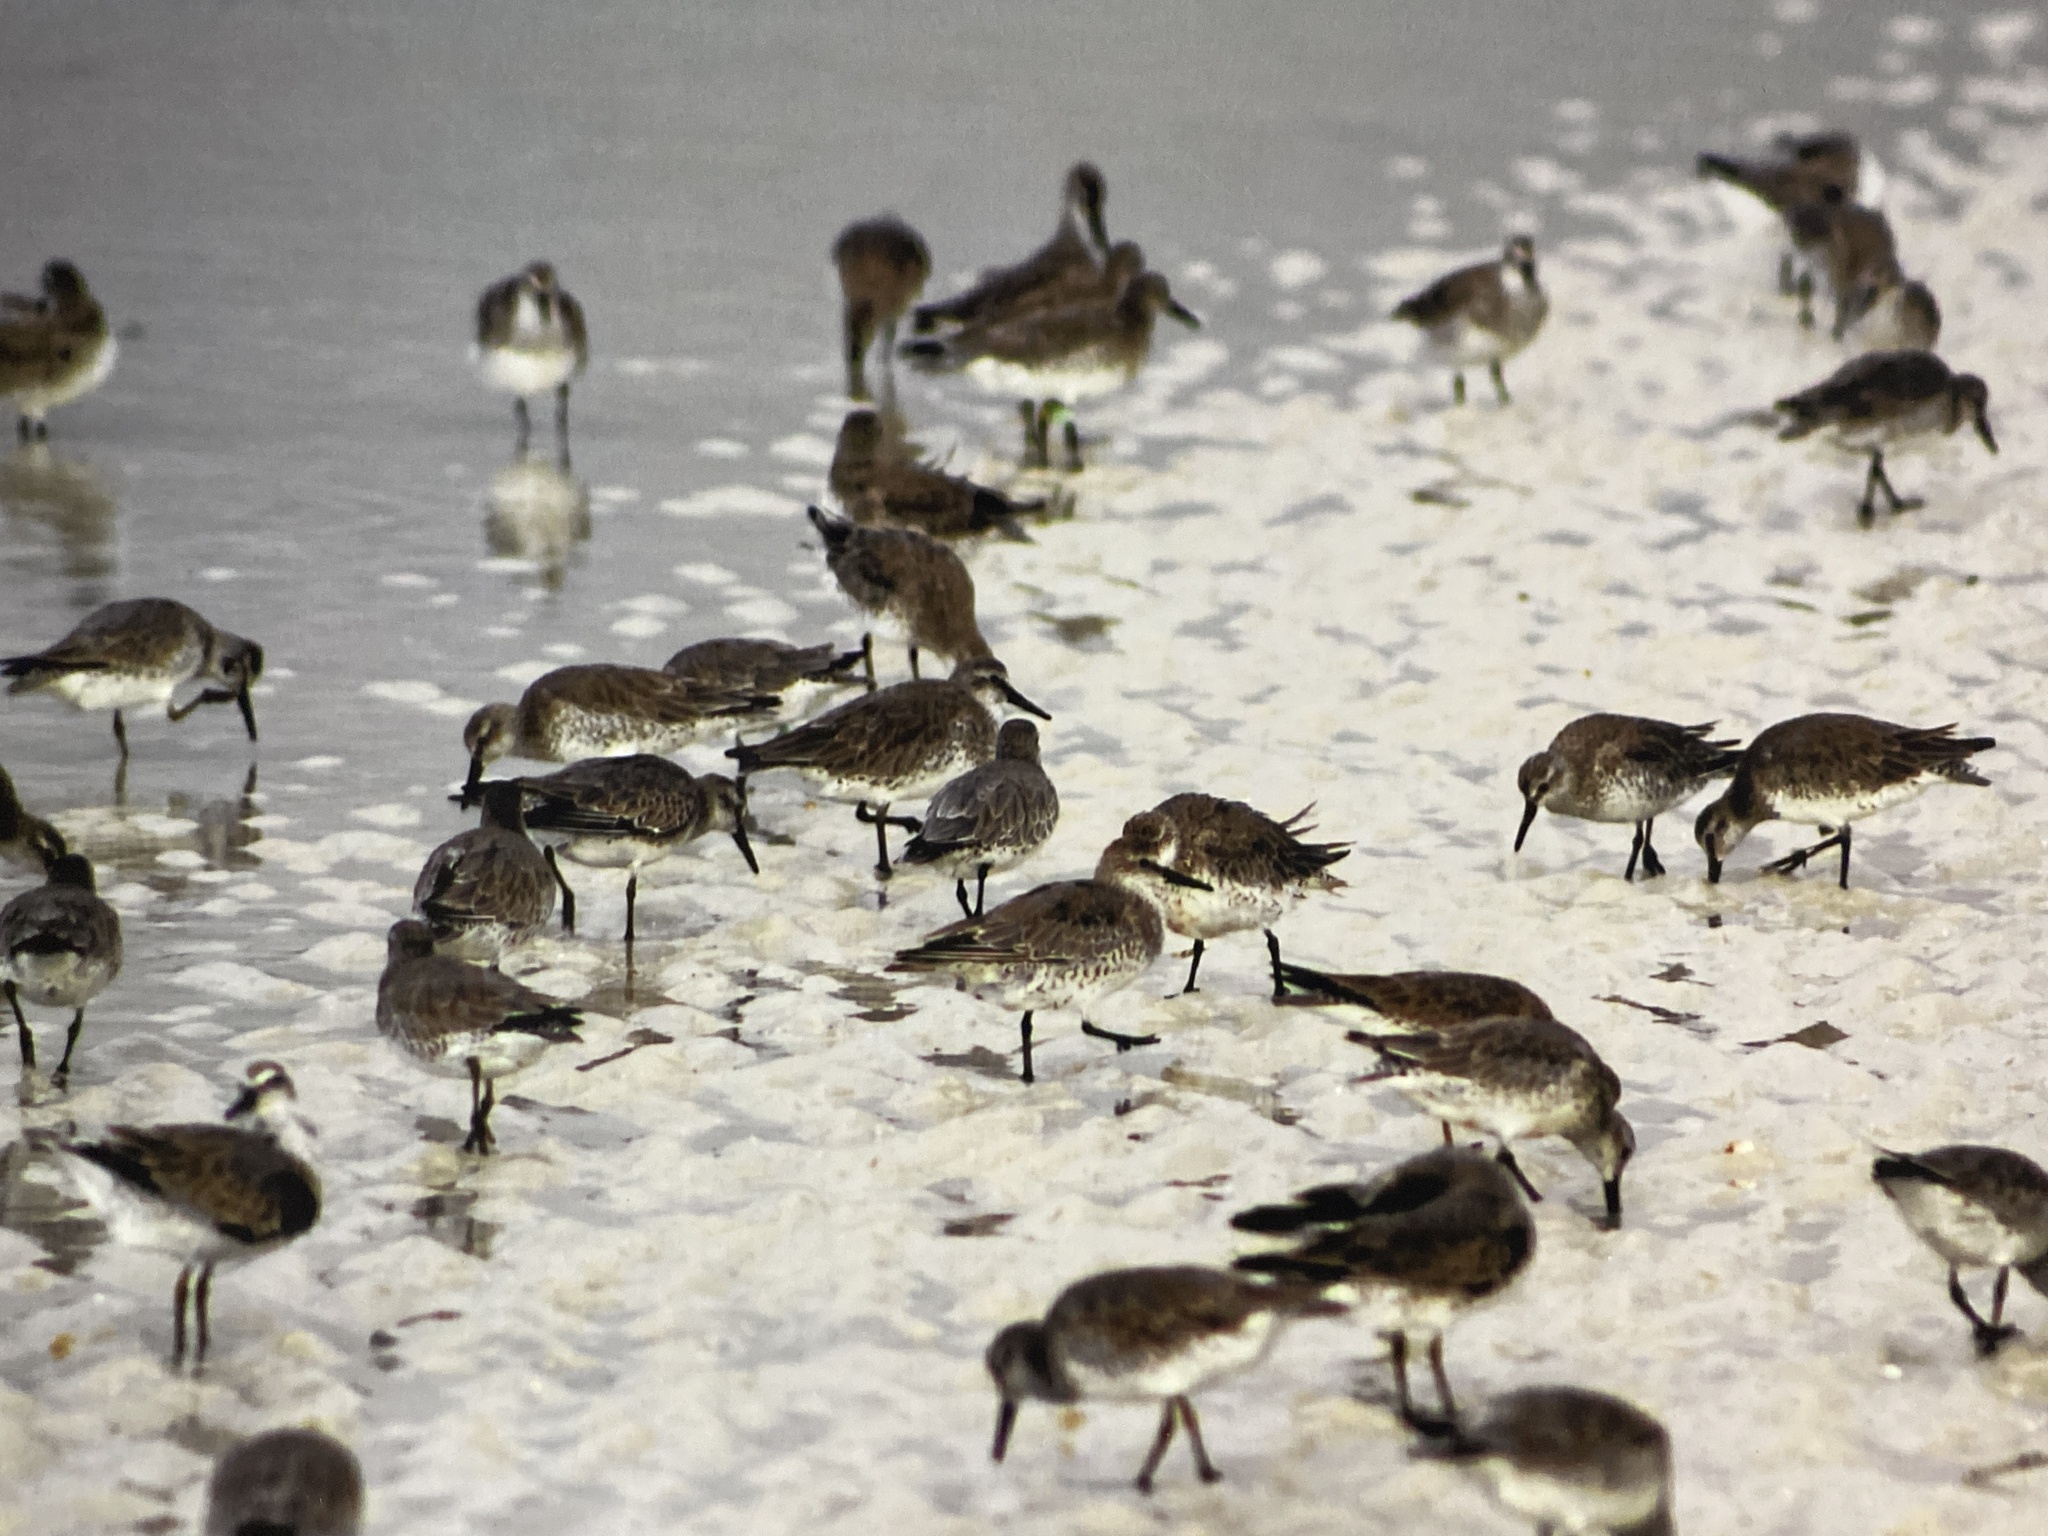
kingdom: Animalia
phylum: Chordata
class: Aves
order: Charadriiformes
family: Scolopacidae
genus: Calidris
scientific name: Calidris canutus
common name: Red knot
